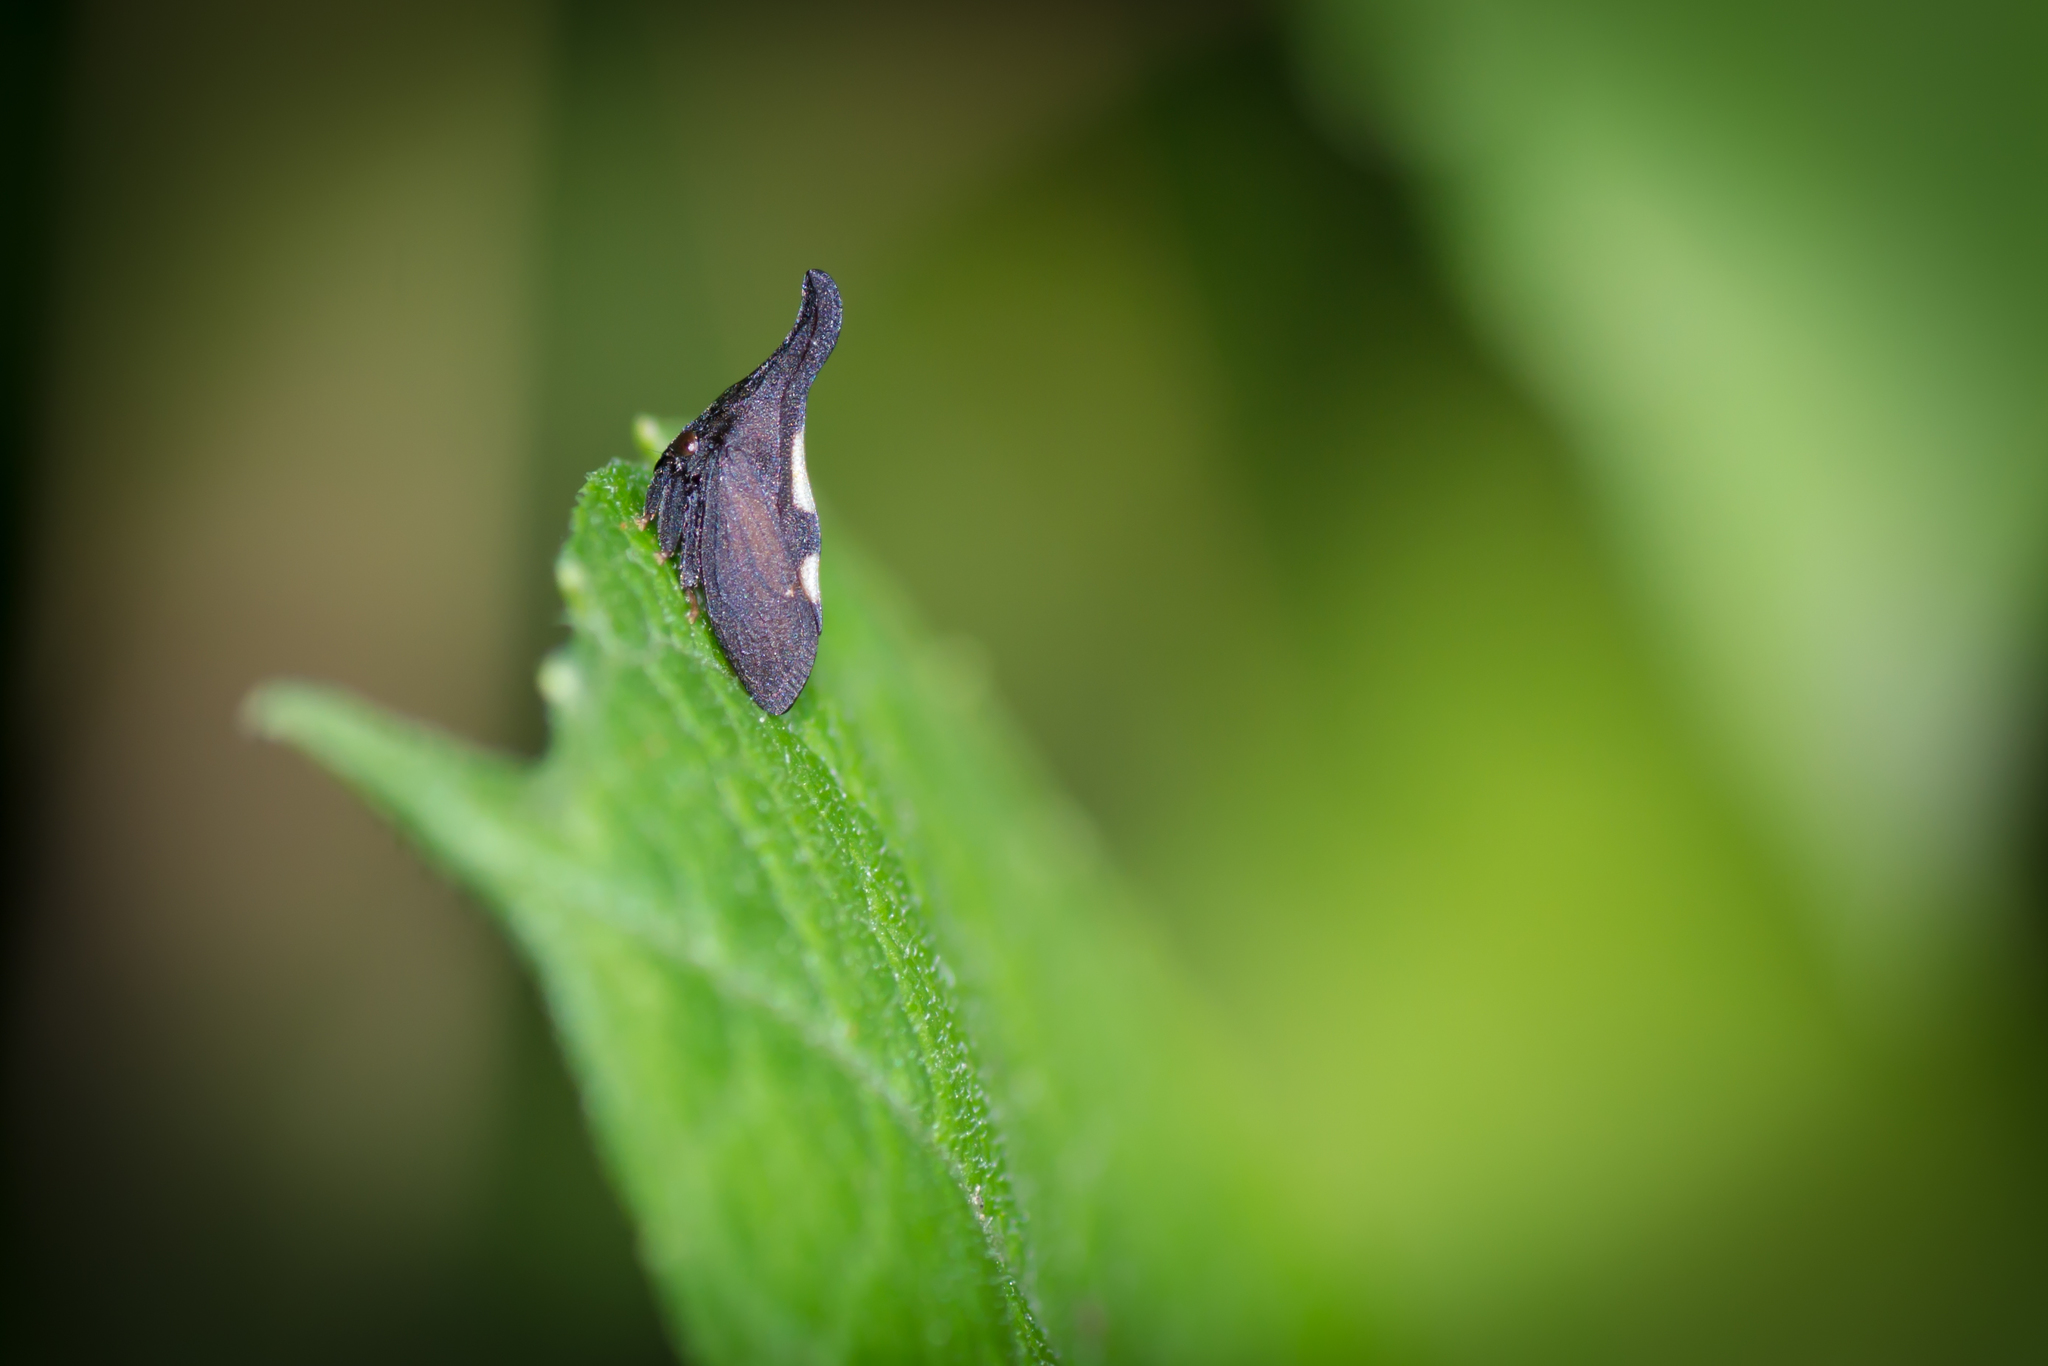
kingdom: Animalia
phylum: Arthropoda
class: Insecta
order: Hemiptera
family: Membracidae
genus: Enchenopa
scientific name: Enchenopa
